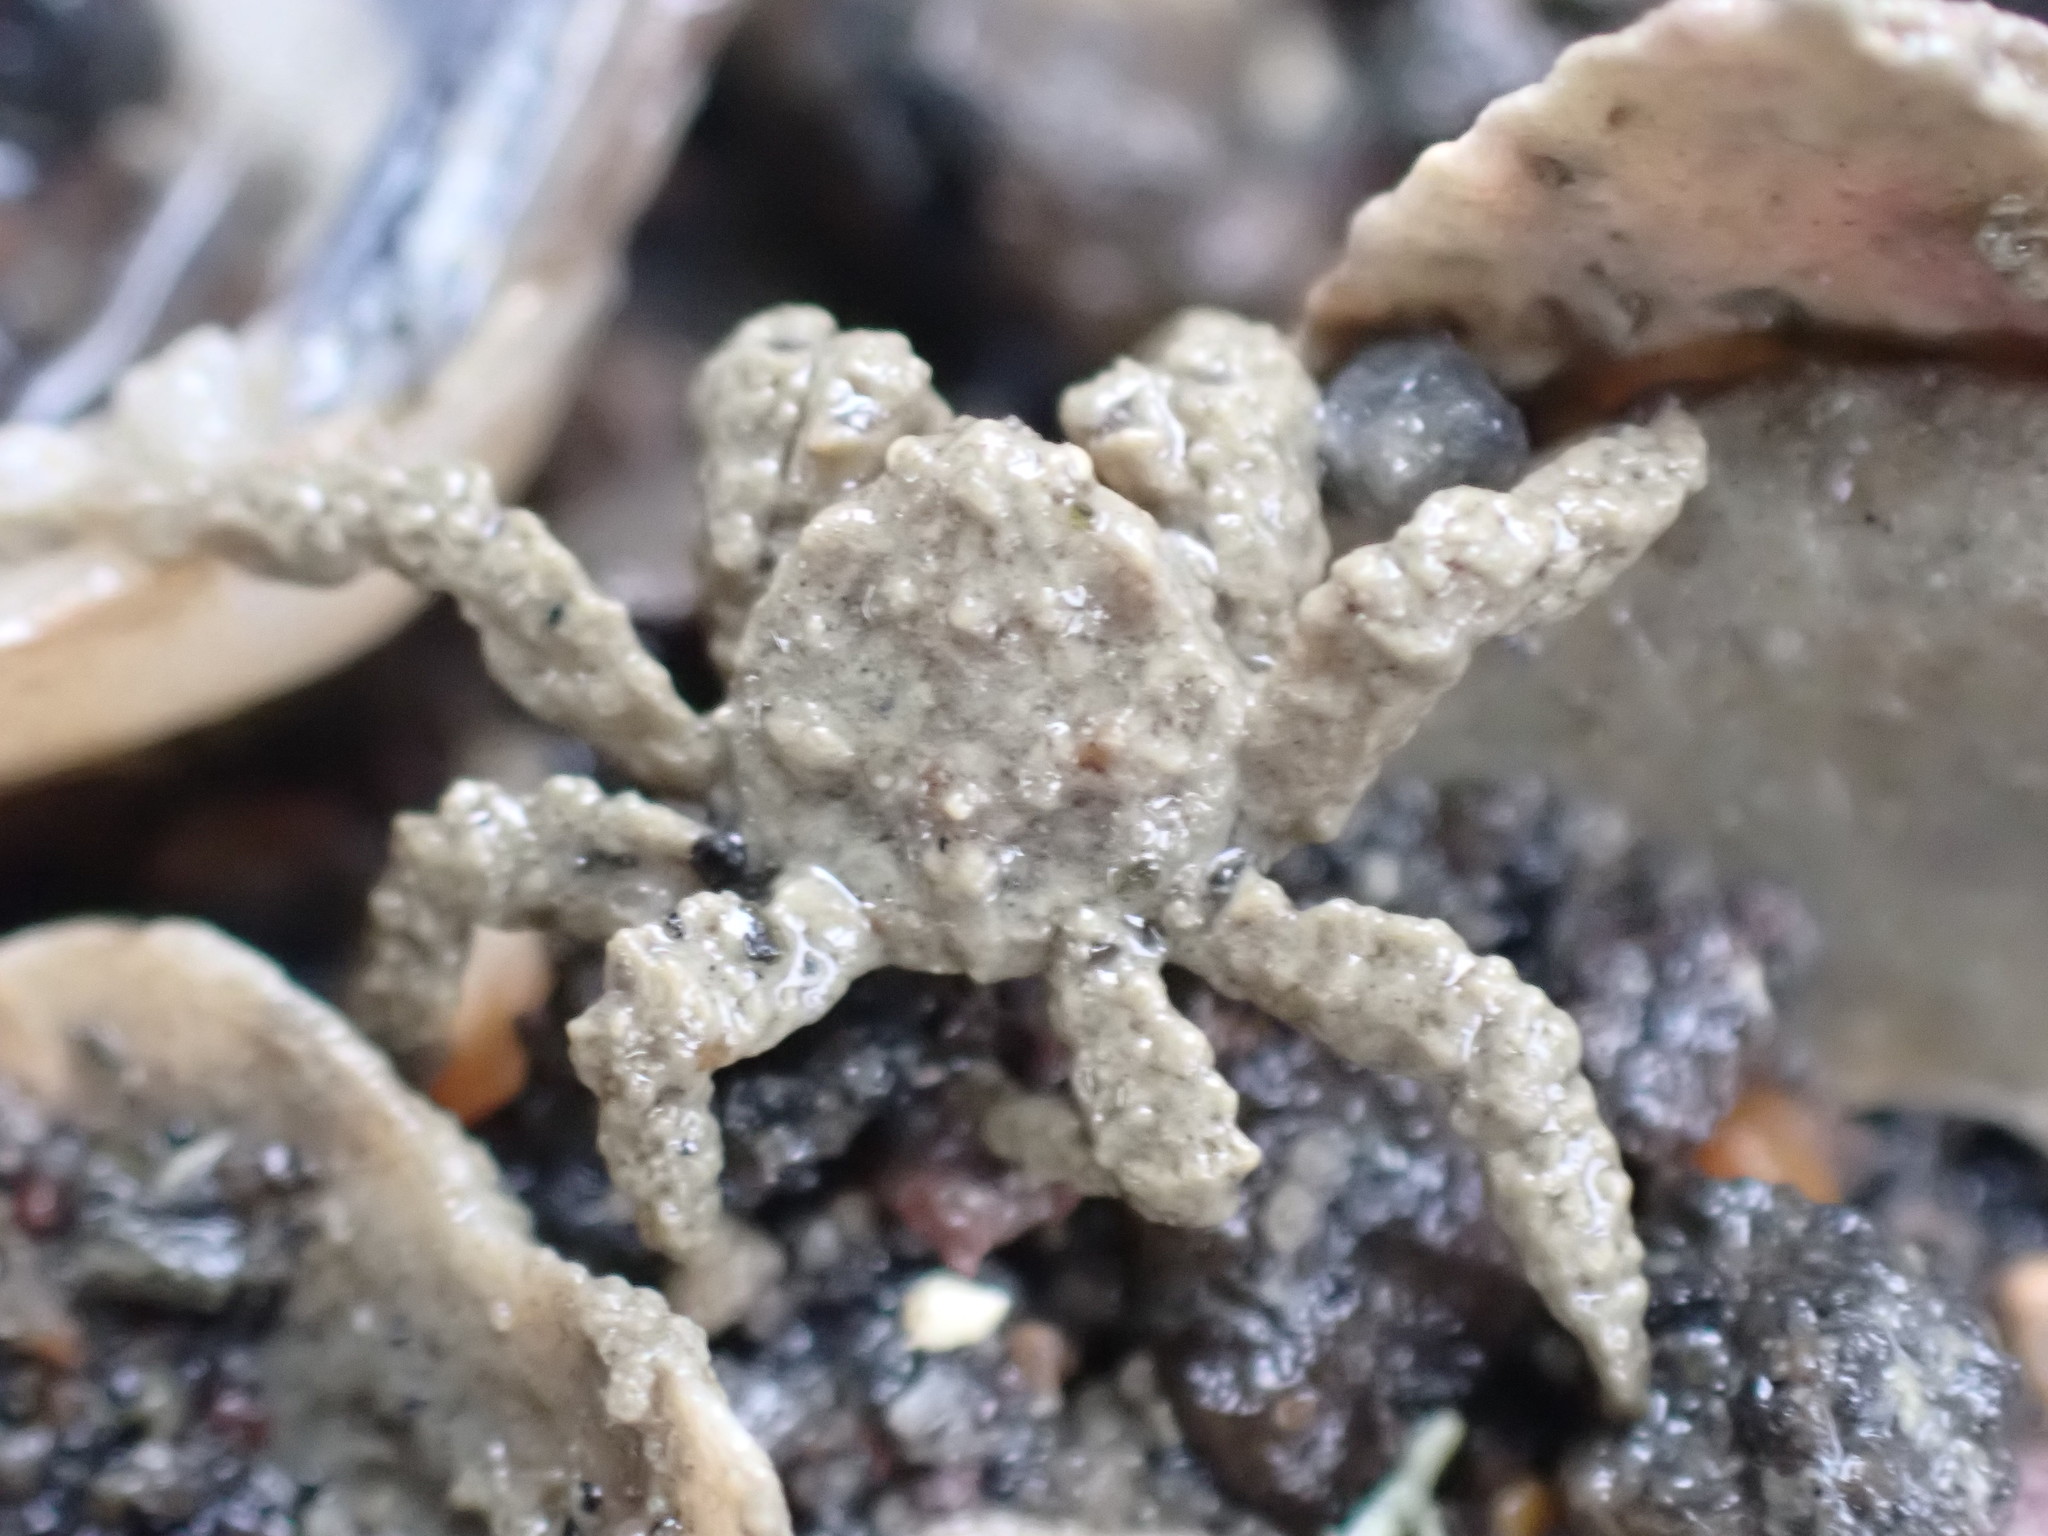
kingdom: Animalia
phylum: Arthropoda
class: Malacostraca
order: Decapoda
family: Hymenosomatidae
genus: Neohymenicus
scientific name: Neohymenicus pubescens
